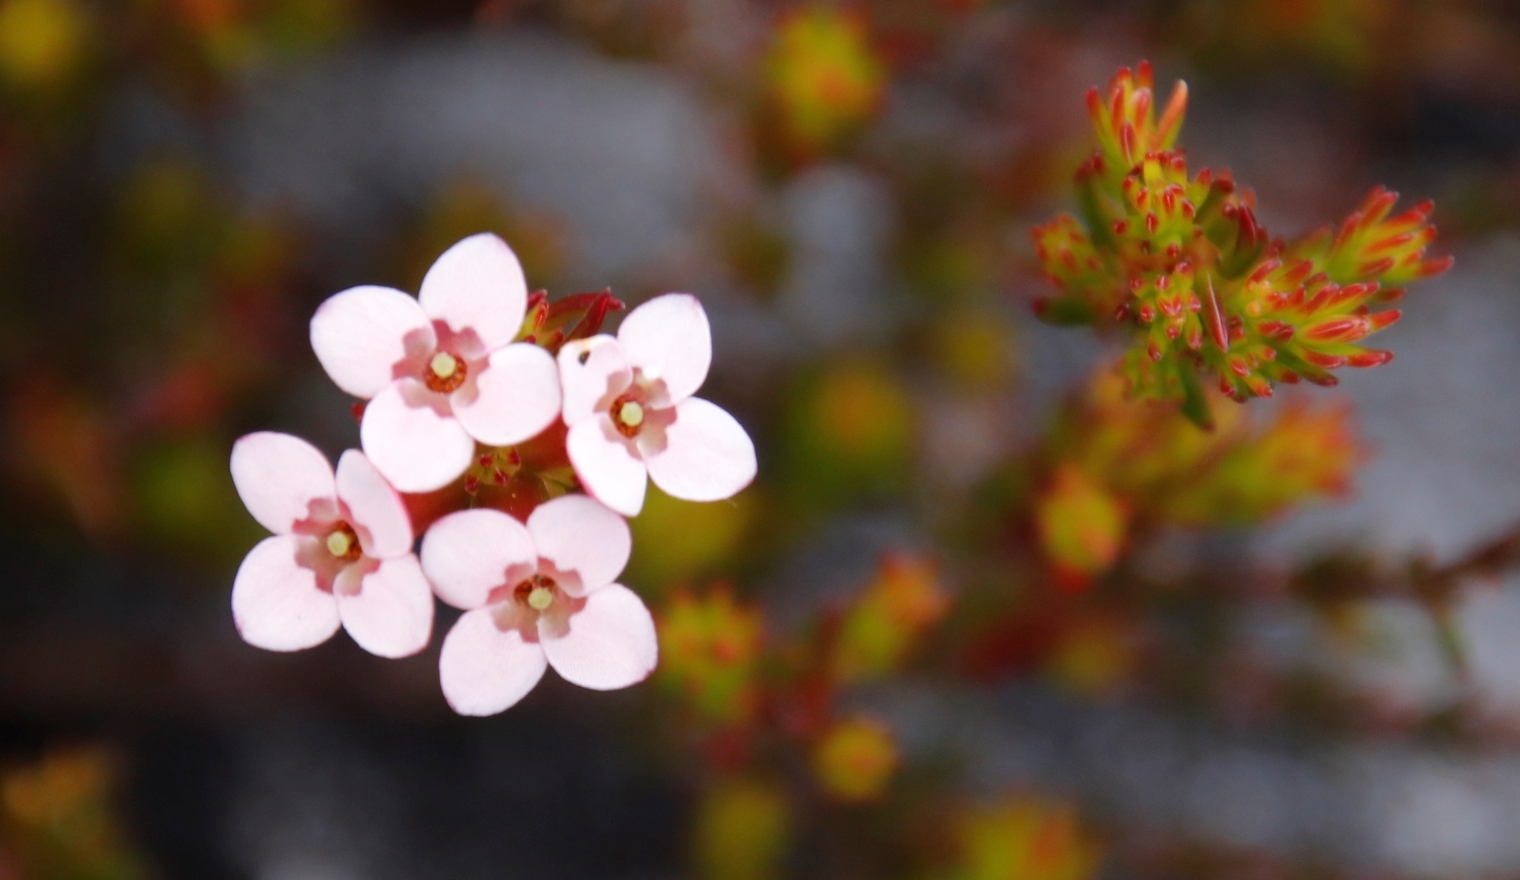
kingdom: Plantae
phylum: Tracheophyta
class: Magnoliopsida
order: Ericales
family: Ericaceae
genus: Erica
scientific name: Erica fastigiata
